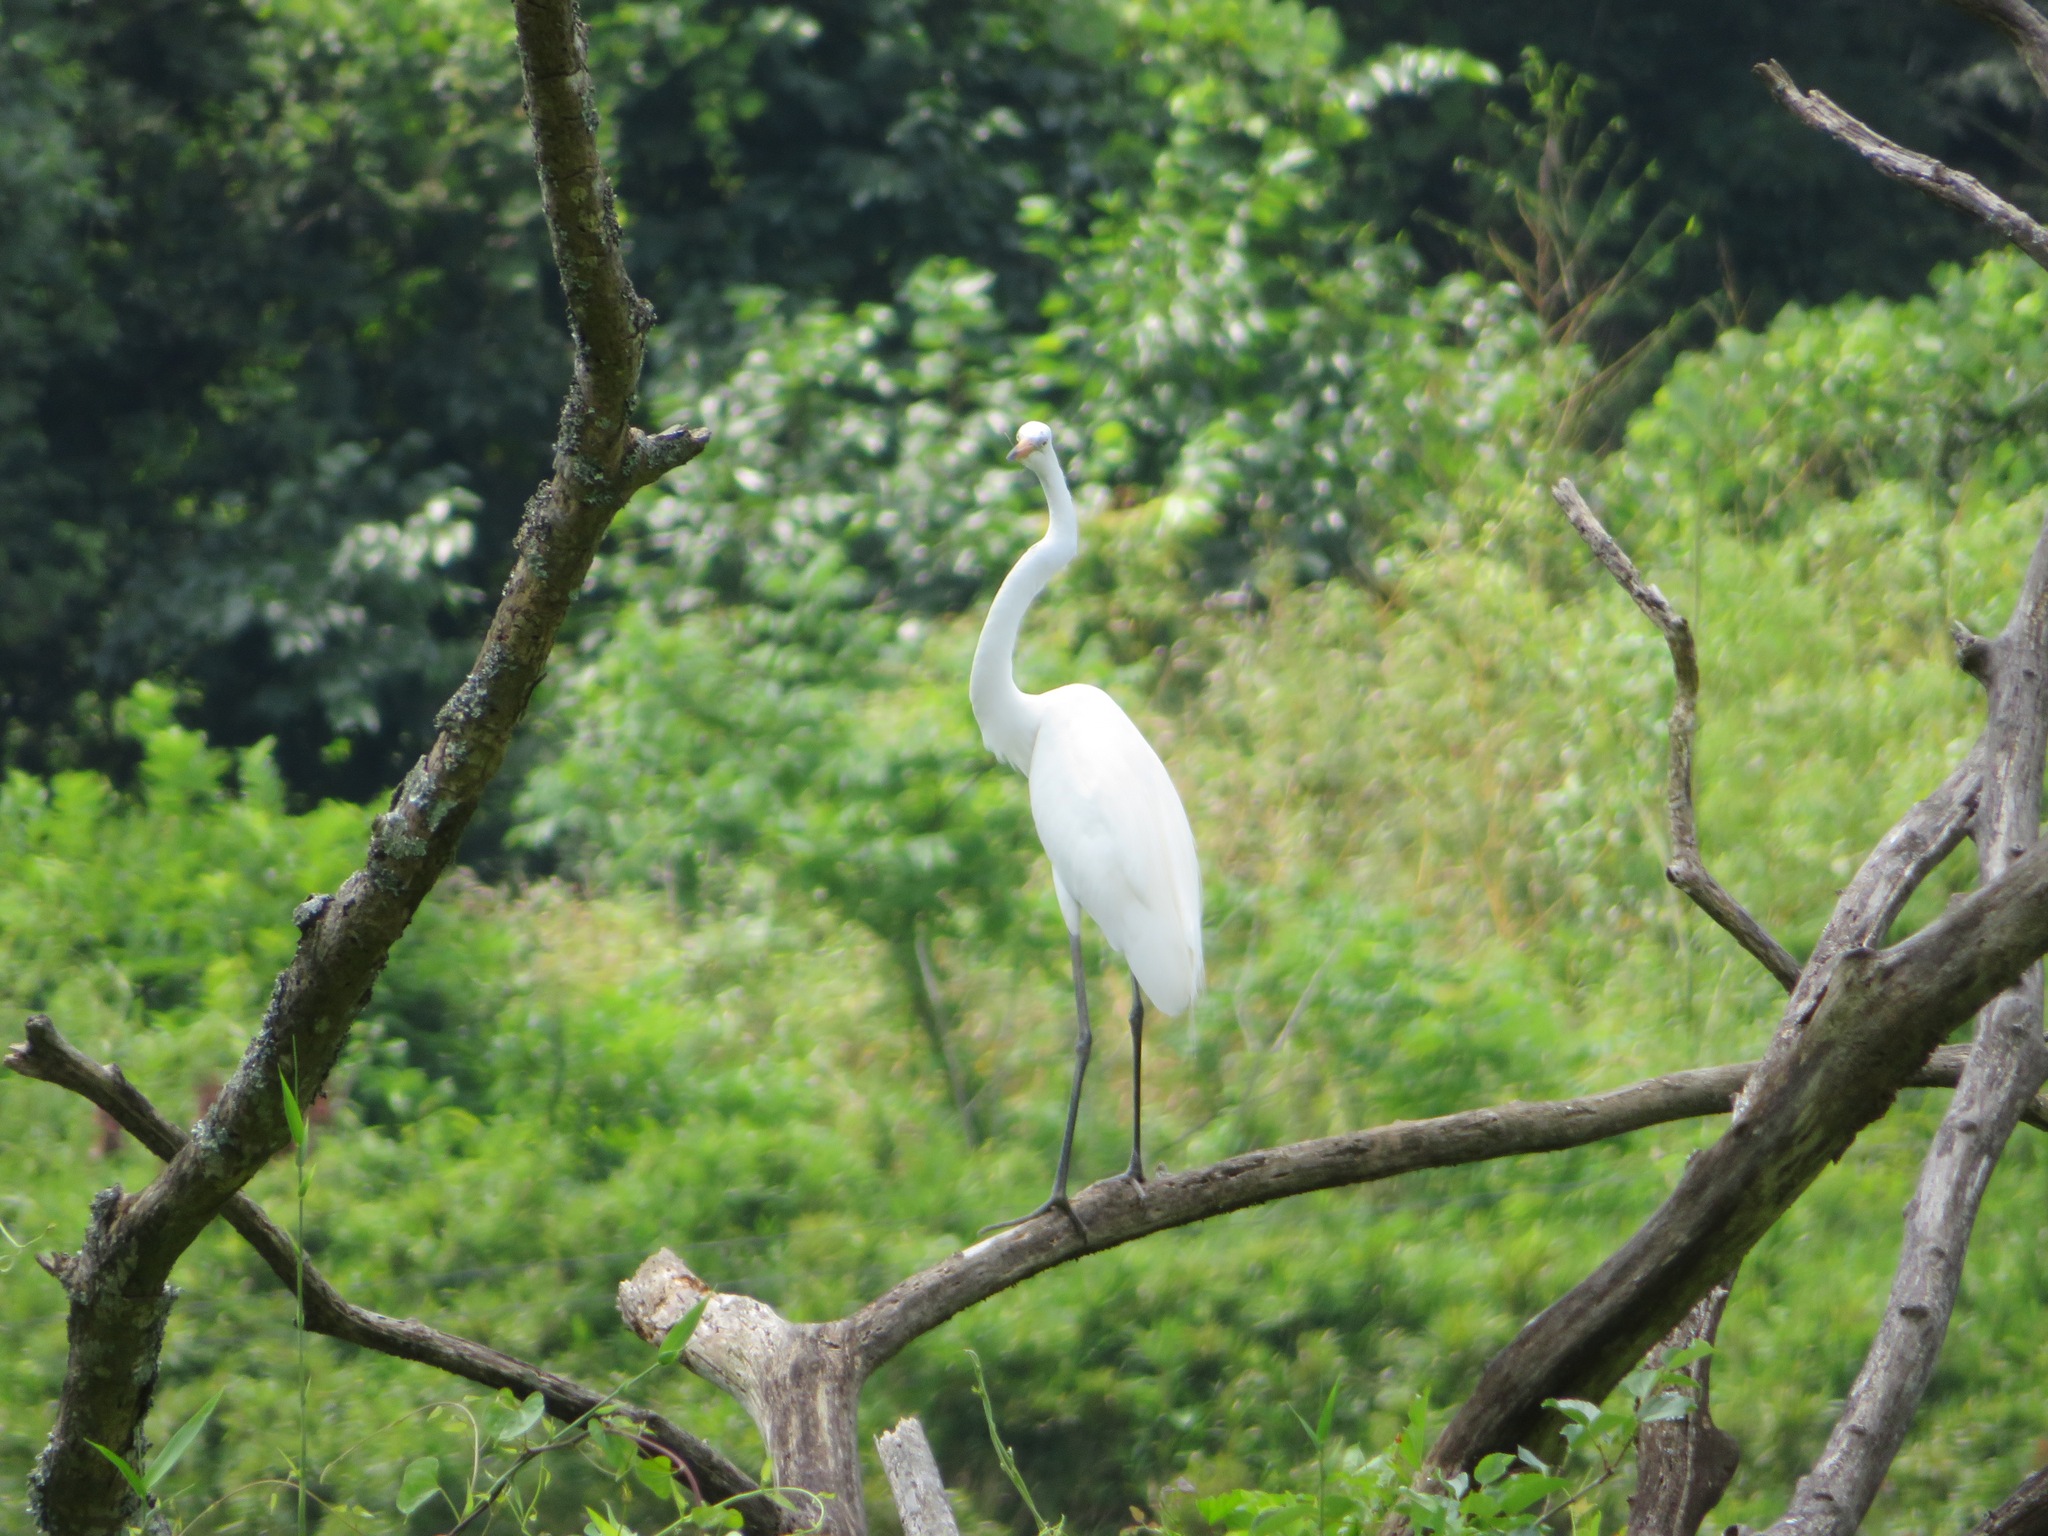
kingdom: Animalia
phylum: Chordata
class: Aves
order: Pelecaniformes
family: Ardeidae
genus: Ardea
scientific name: Ardea alba
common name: Great egret
